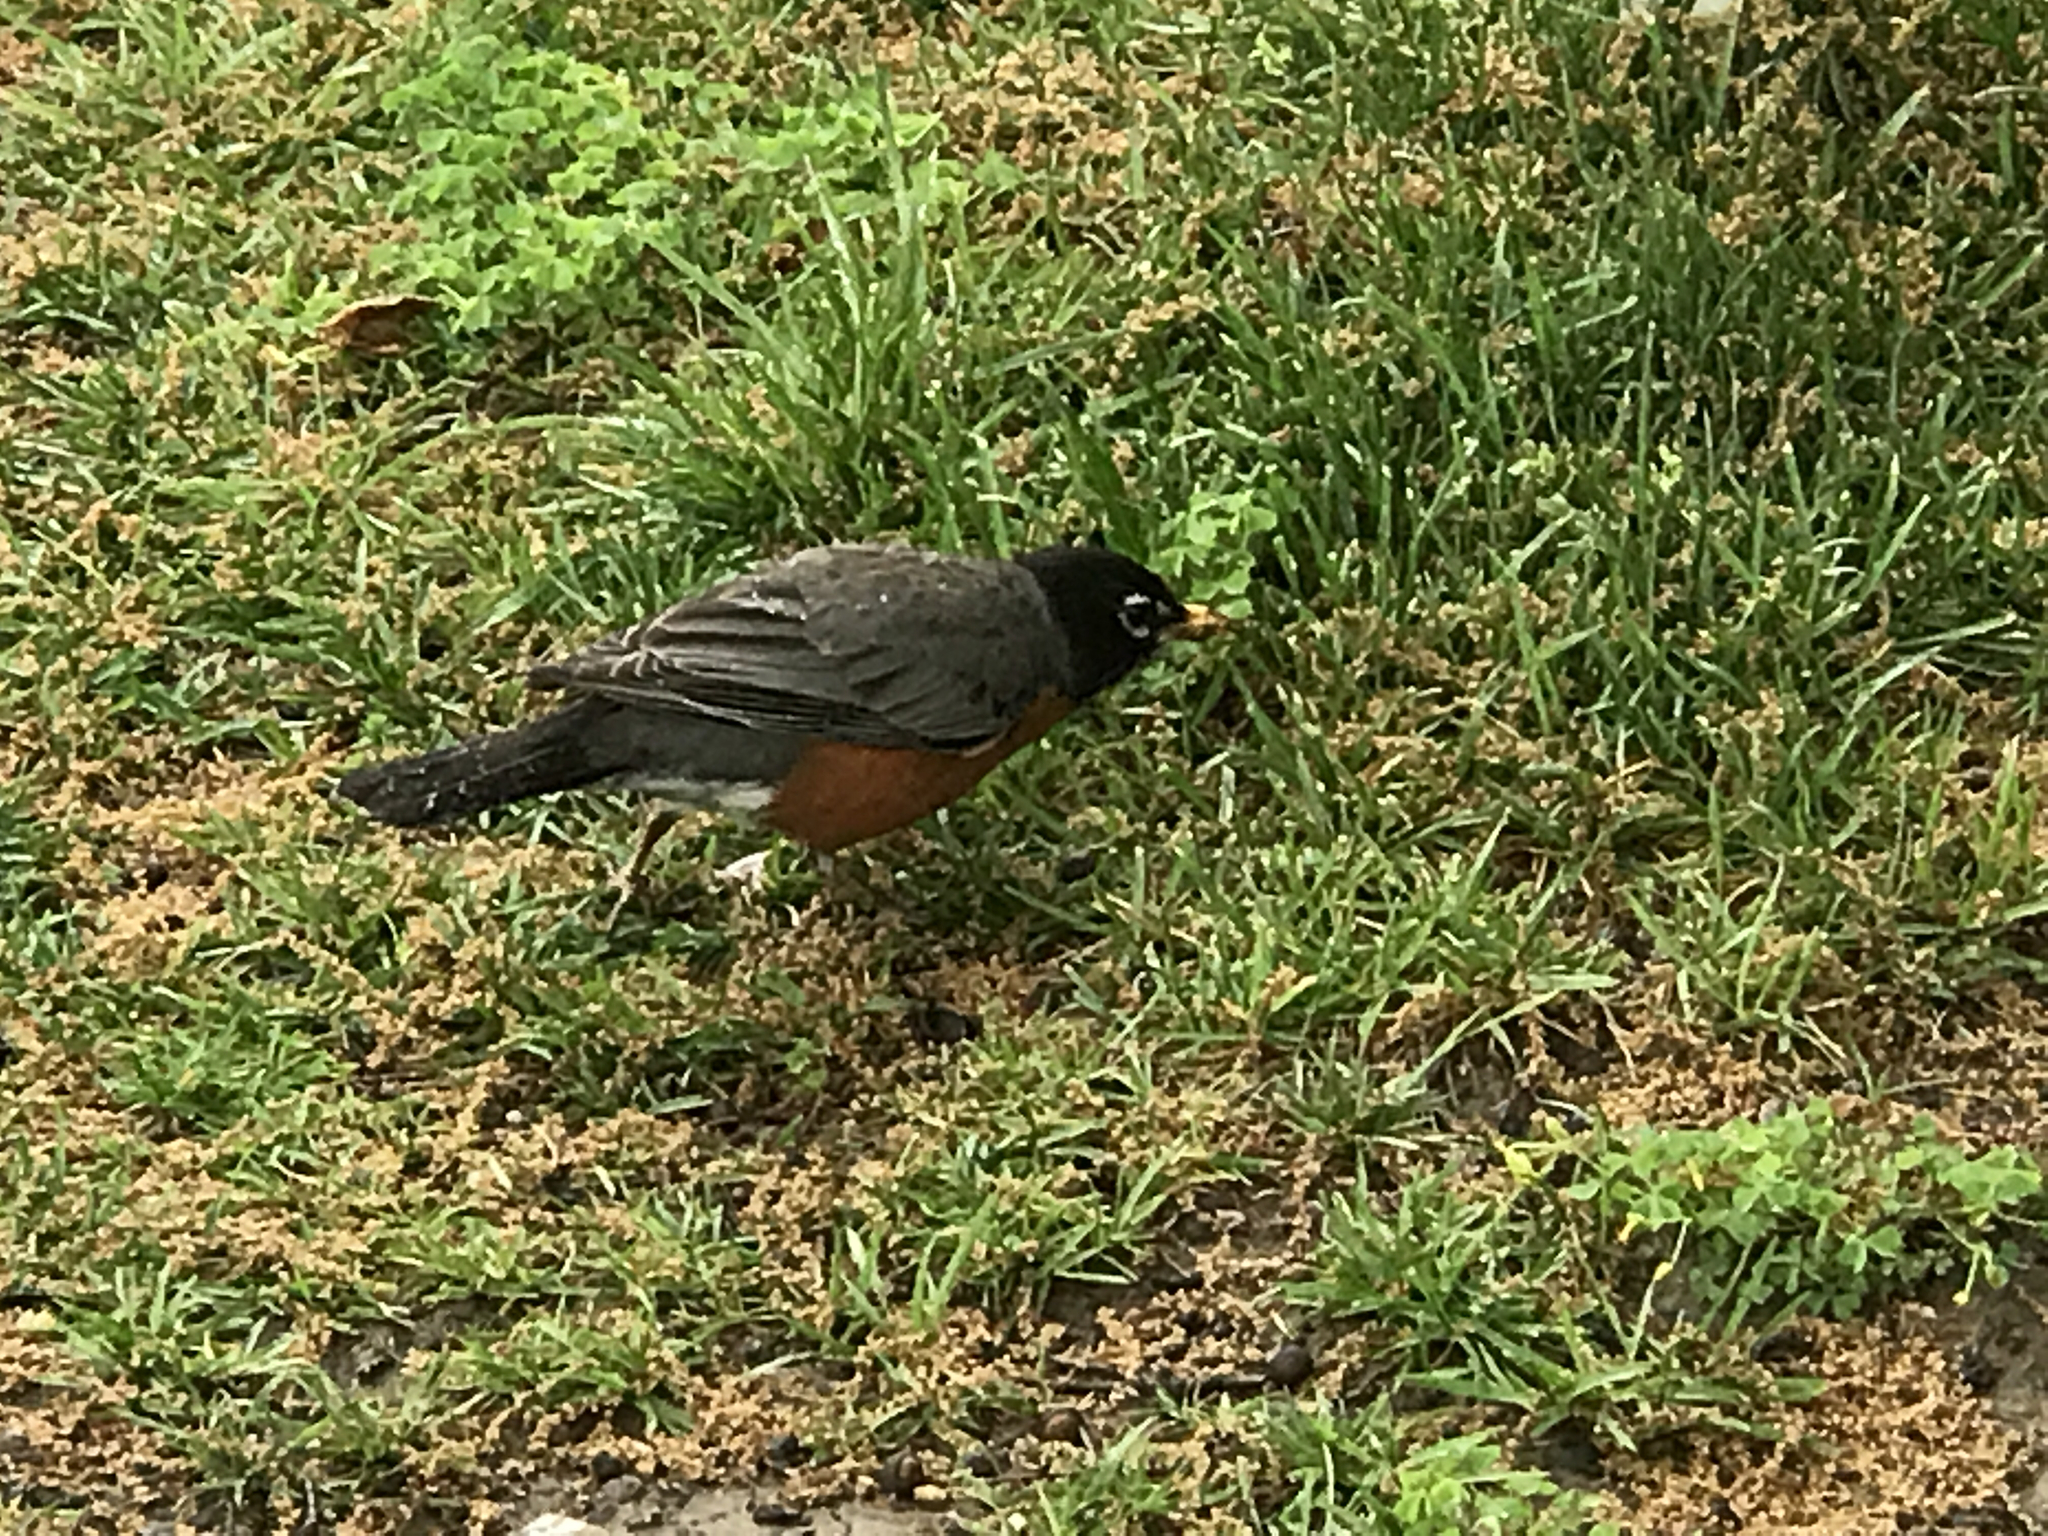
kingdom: Animalia
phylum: Chordata
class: Aves
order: Passeriformes
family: Turdidae
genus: Turdus
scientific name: Turdus migratorius
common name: American robin
